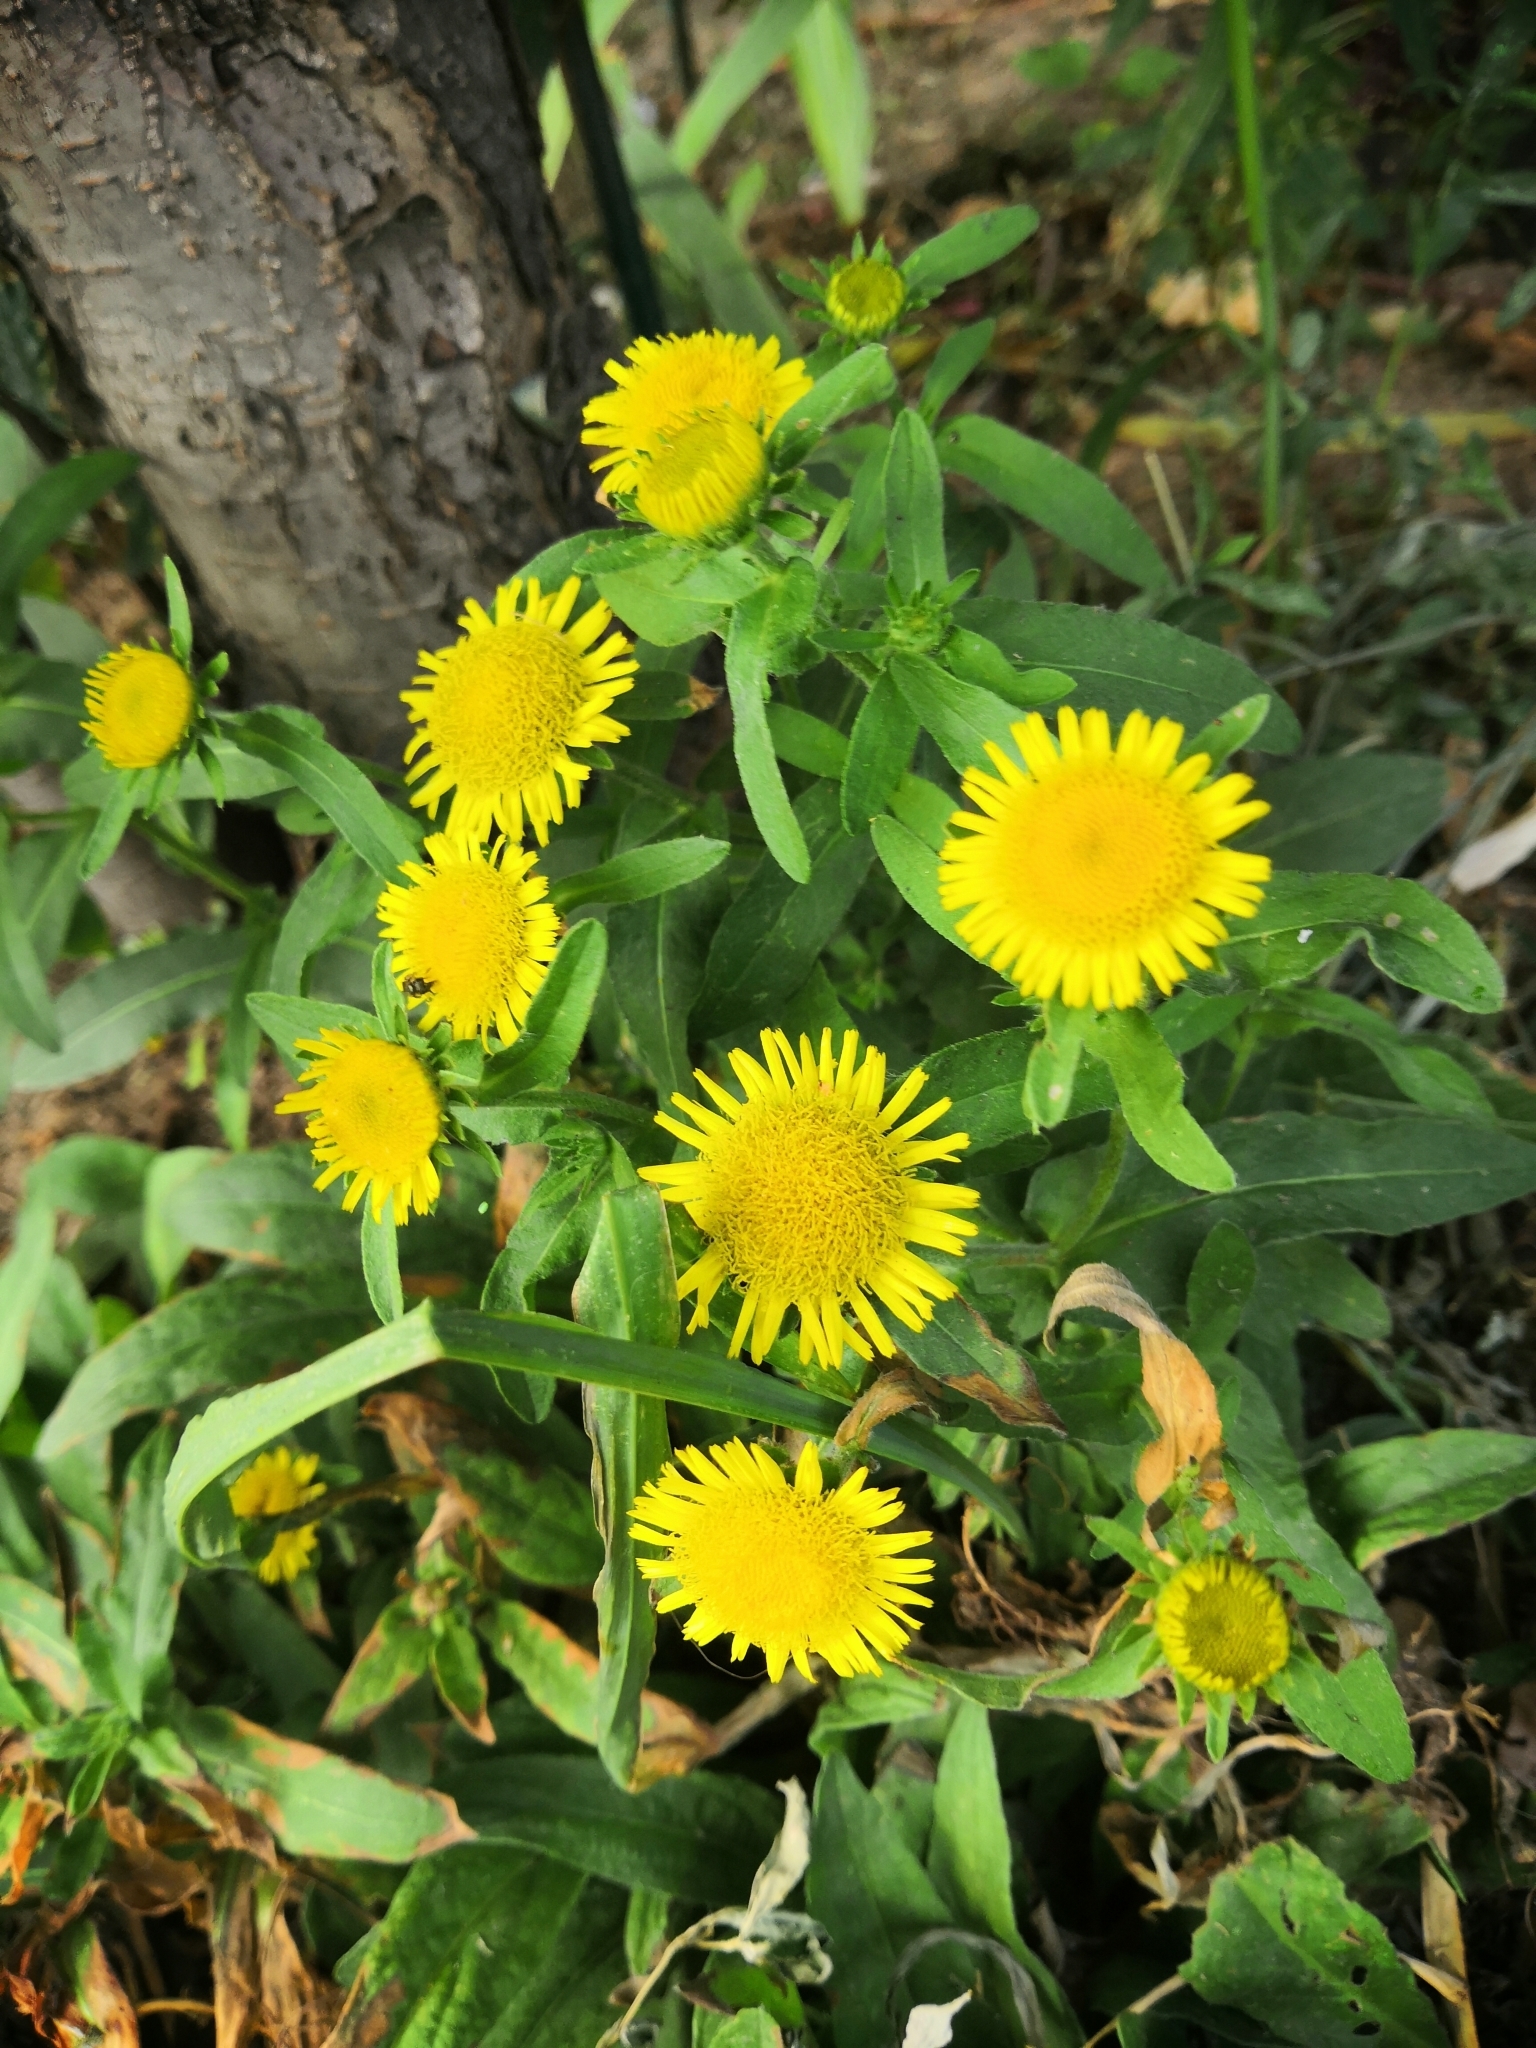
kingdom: Plantae
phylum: Tracheophyta
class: Magnoliopsida
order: Asterales
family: Asteraceae
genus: Pentanema
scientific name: Pentanema britannicum
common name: British elecampane
